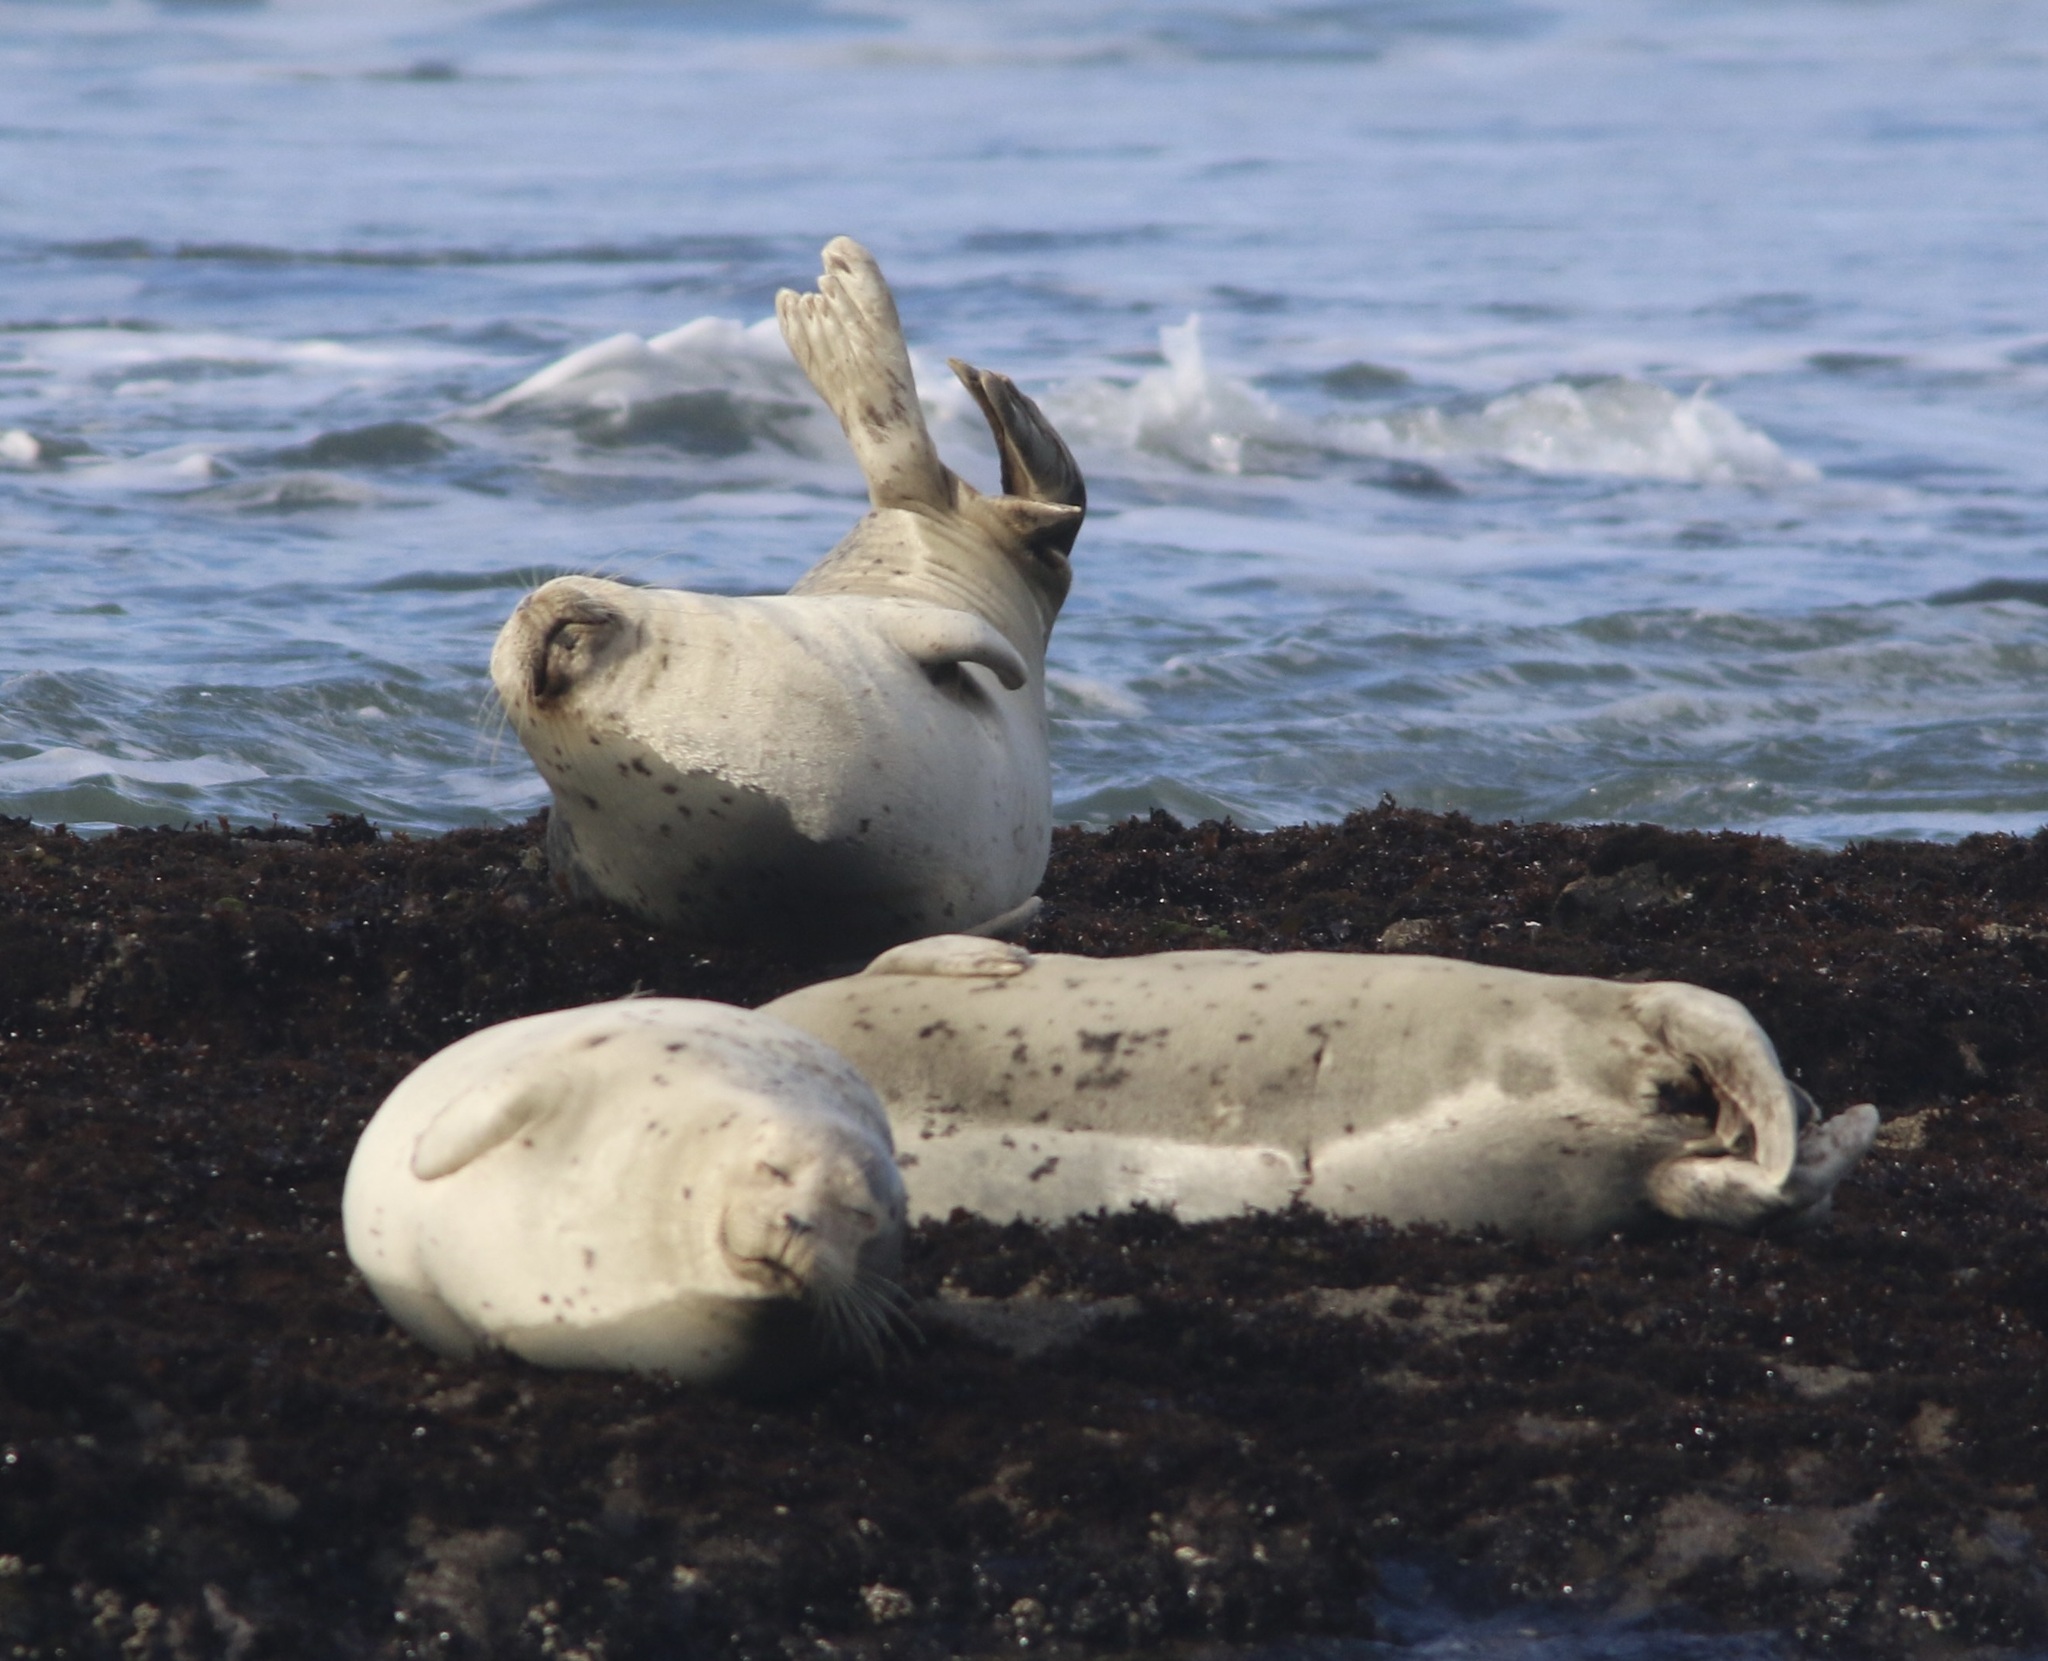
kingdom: Animalia
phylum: Chordata
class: Mammalia
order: Carnivora
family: Phocidae
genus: Phoca
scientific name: Phoca vitulina
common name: Harbor seal
